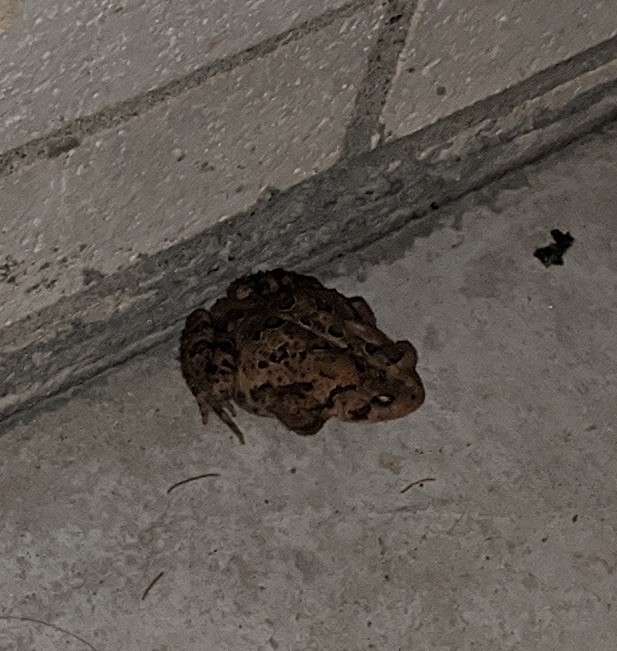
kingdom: Animalia
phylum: Chordata
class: Amphibia
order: Anura
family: Bufonidae
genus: Anaxyrus
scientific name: Anaxyrus americanus
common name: American toad
